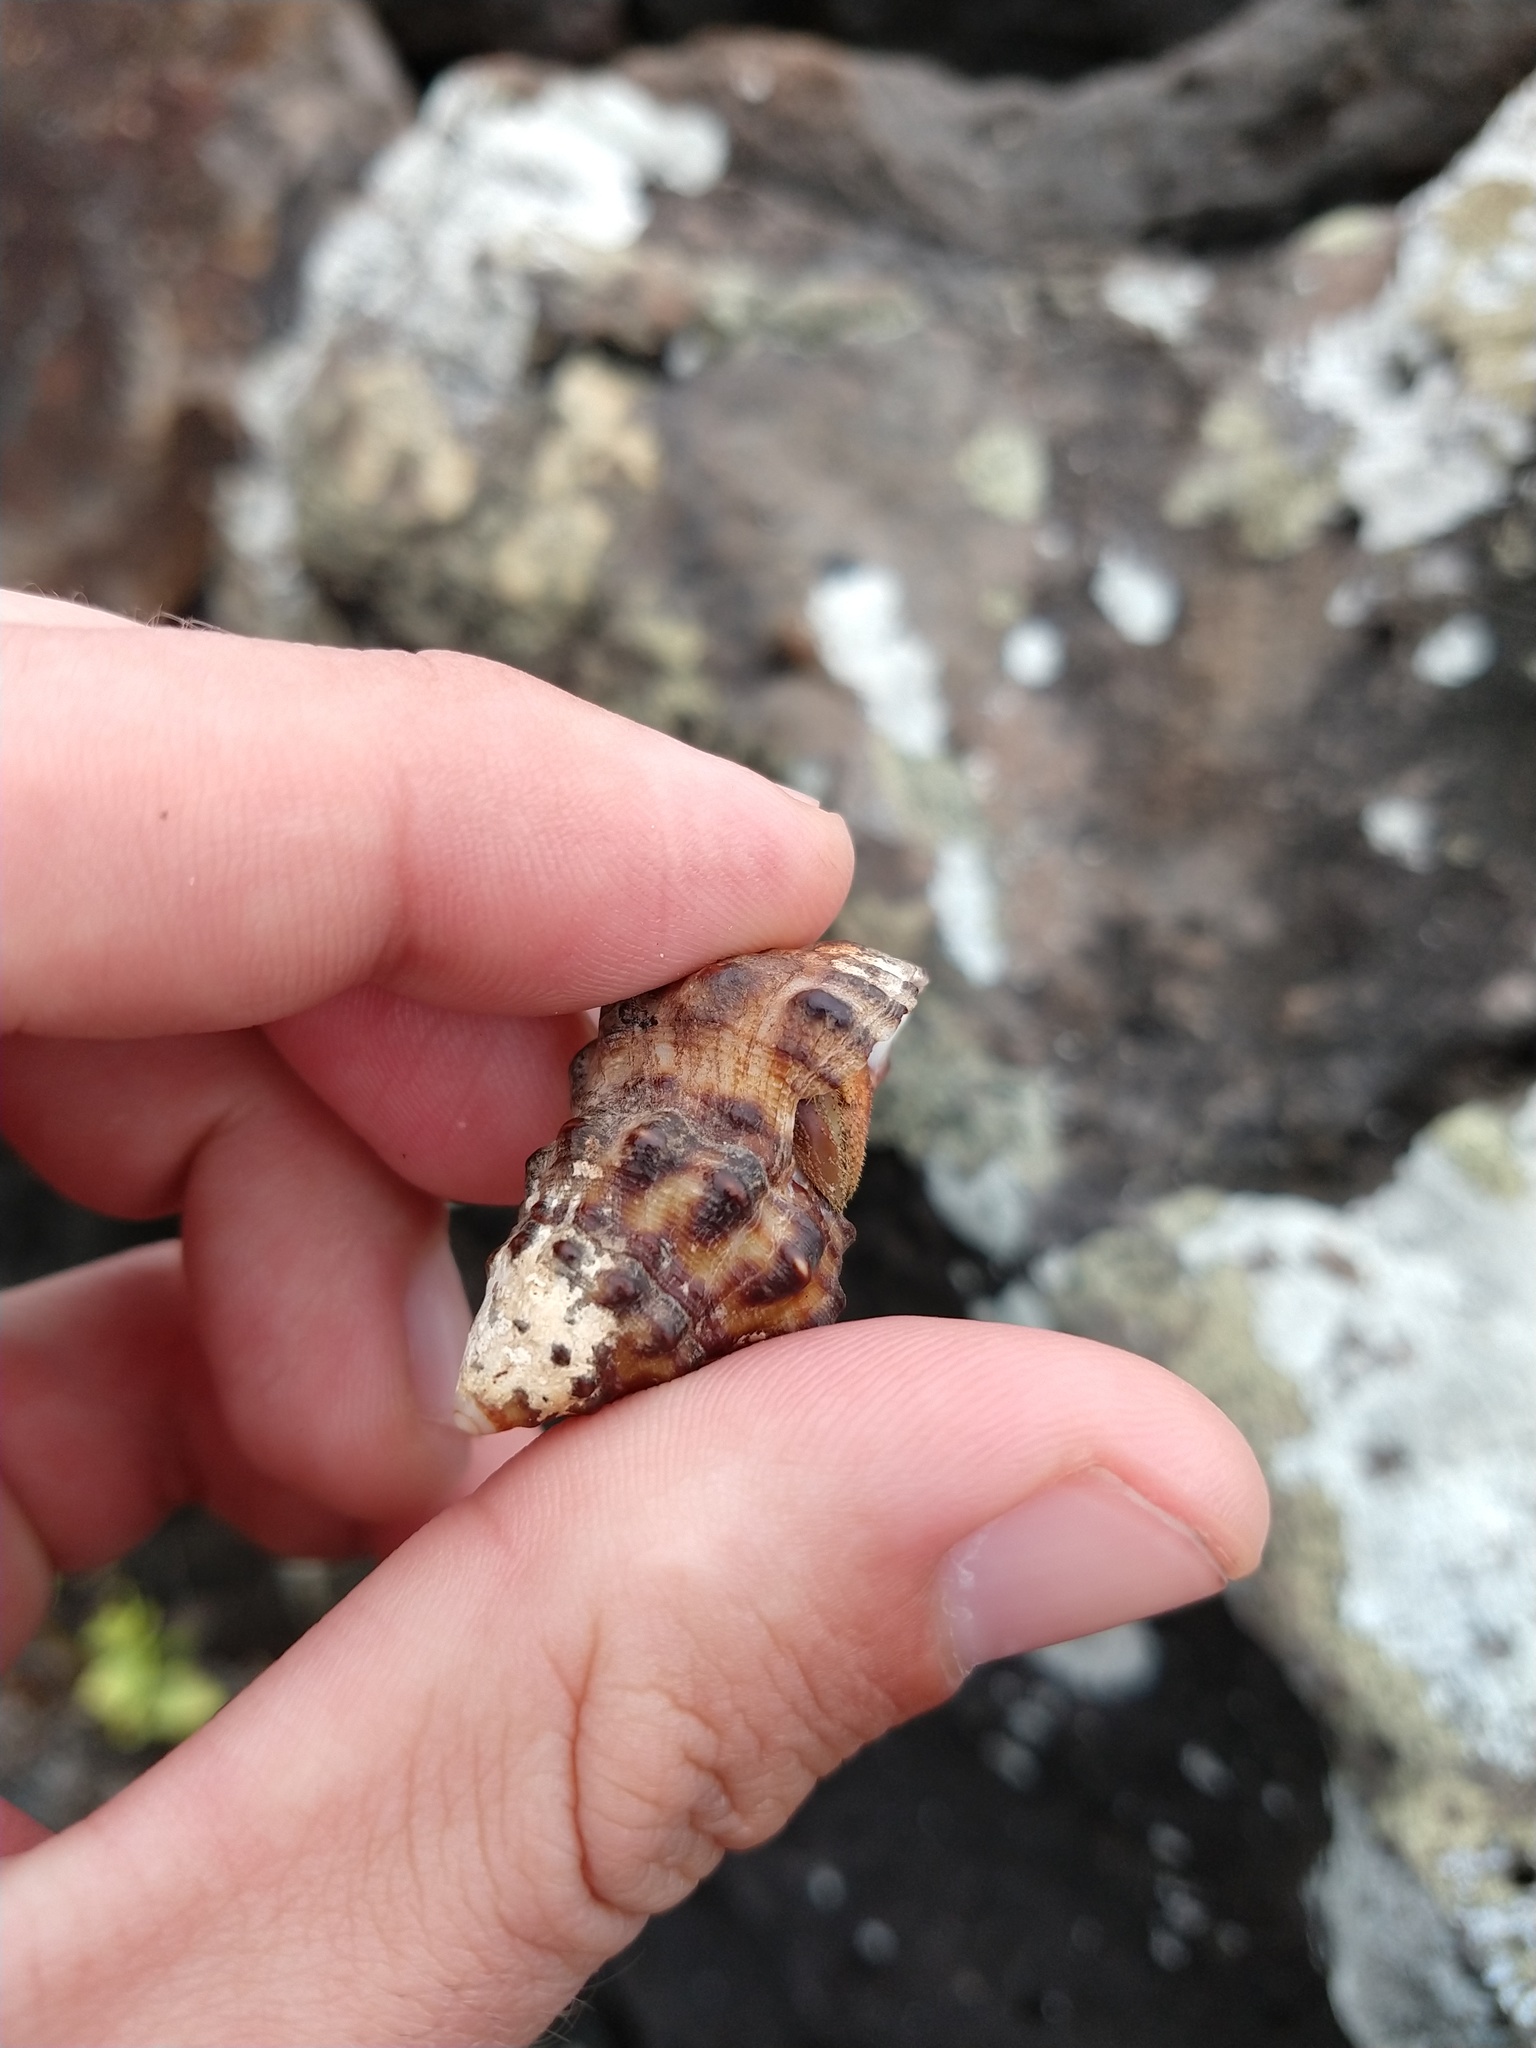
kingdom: Animalia
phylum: Arthropoda
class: Malacostraca
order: Decapoda
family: Coenobitidae
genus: Coenobita
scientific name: Coenobita compressus
